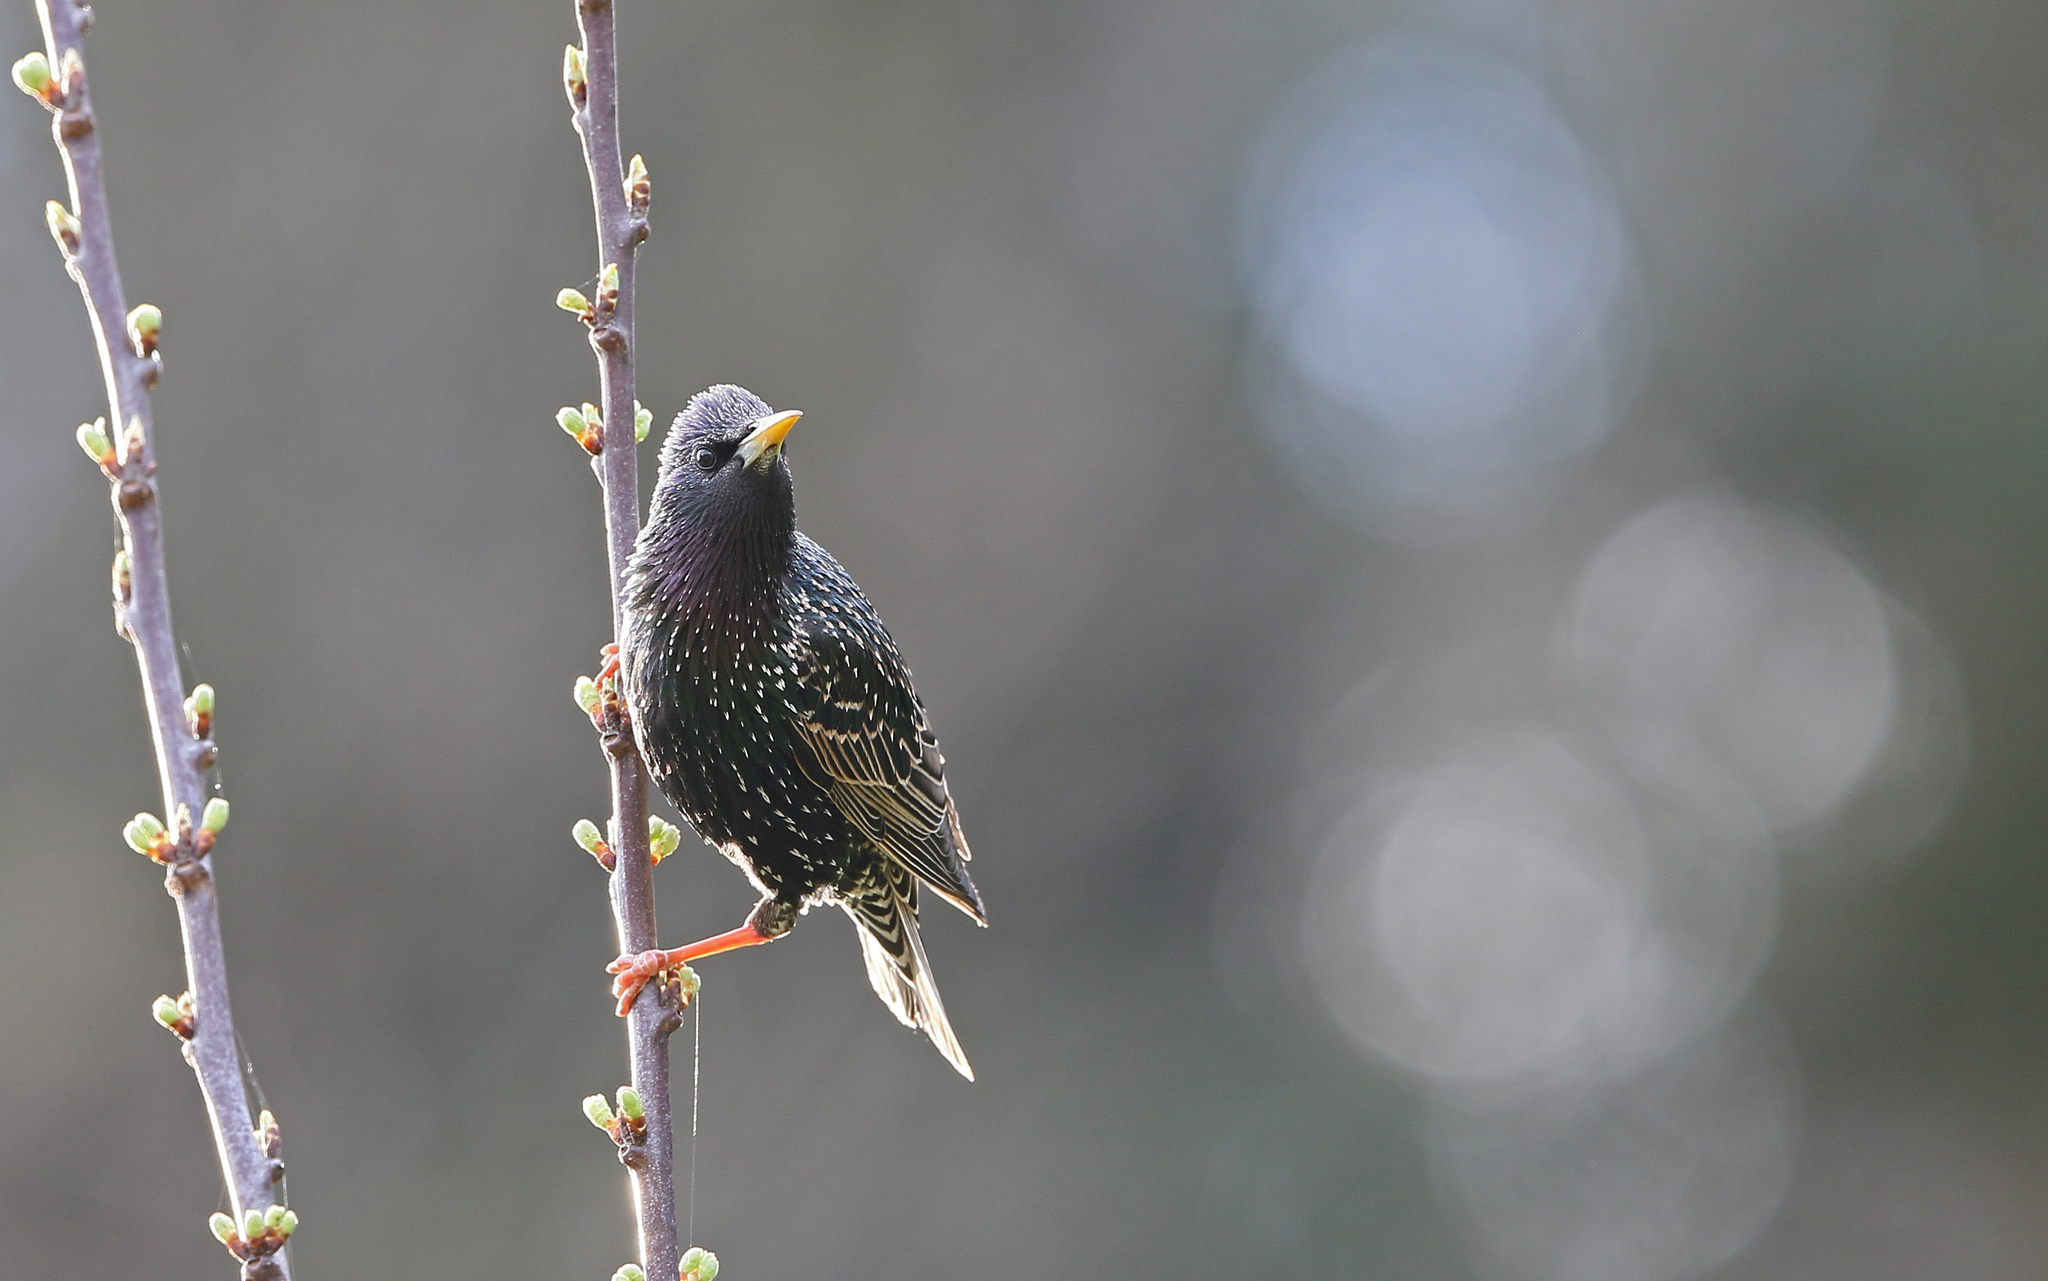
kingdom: Animalia
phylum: Chordata
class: Aves
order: Passeriformes
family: Sturnidae
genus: Sturnus
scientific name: Sturnus vulgaris
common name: Common starling
